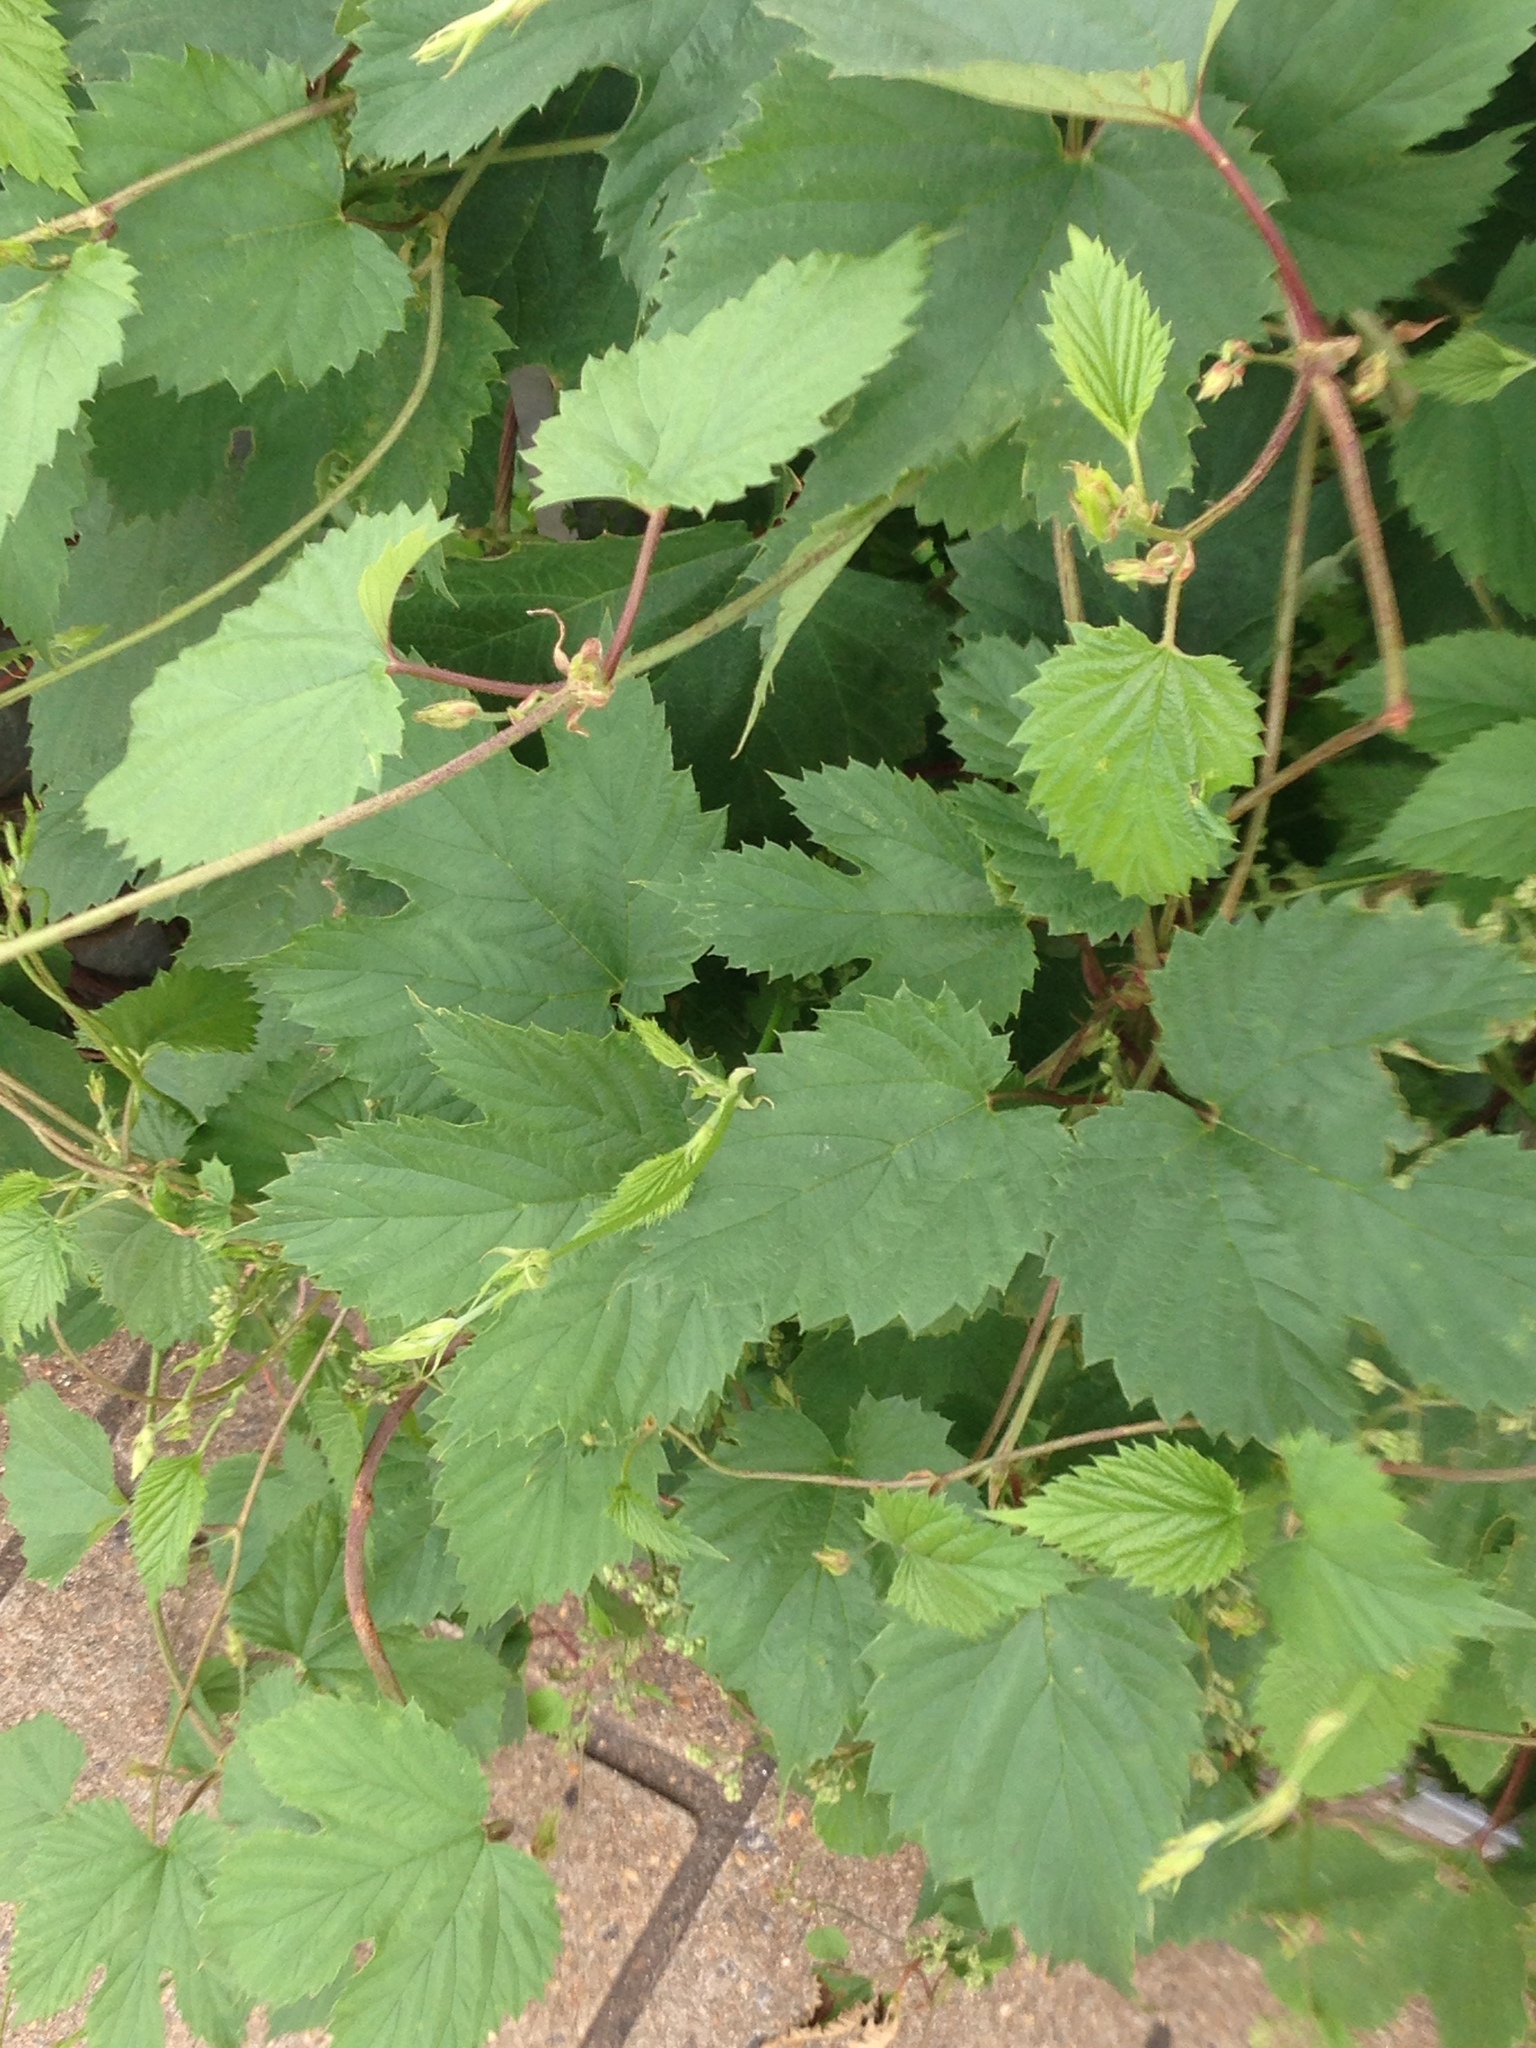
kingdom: Plantae
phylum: Tracheophyta
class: Magnoliopsida
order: Rosales
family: Cannabaceae
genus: Humulus
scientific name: Humulus lupulus
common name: Hop
